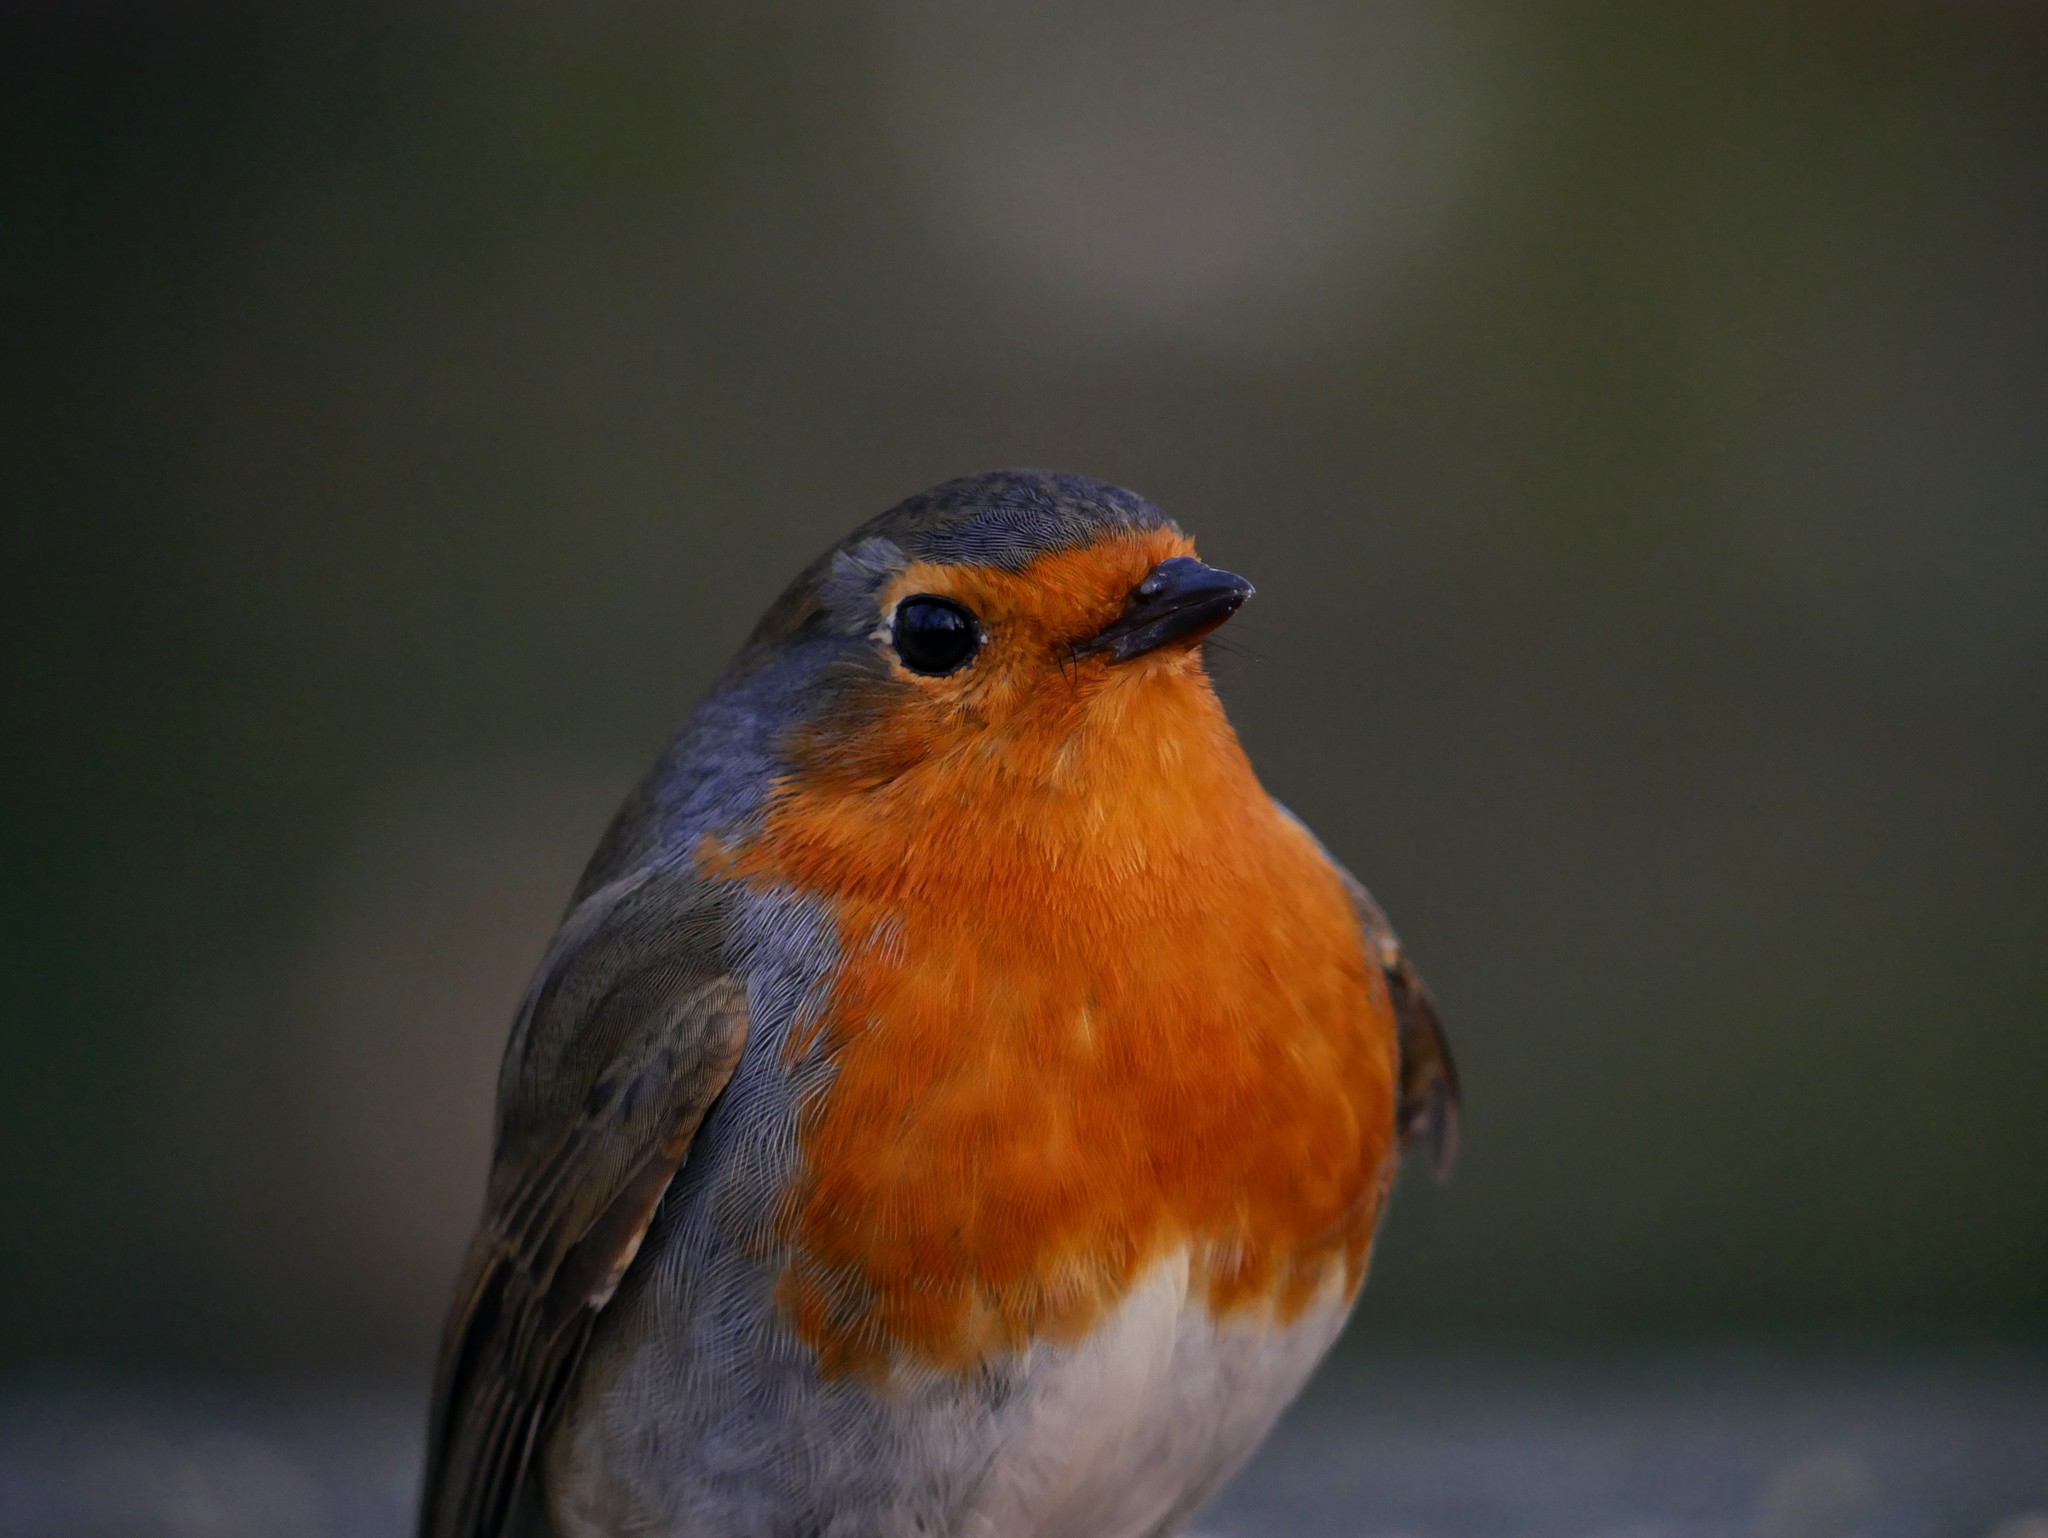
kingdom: Animalia
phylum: Chordata
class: Aves
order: Passeriformes
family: Muscicapidae
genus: Erithacus
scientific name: Erithacus rubecula
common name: European robin
